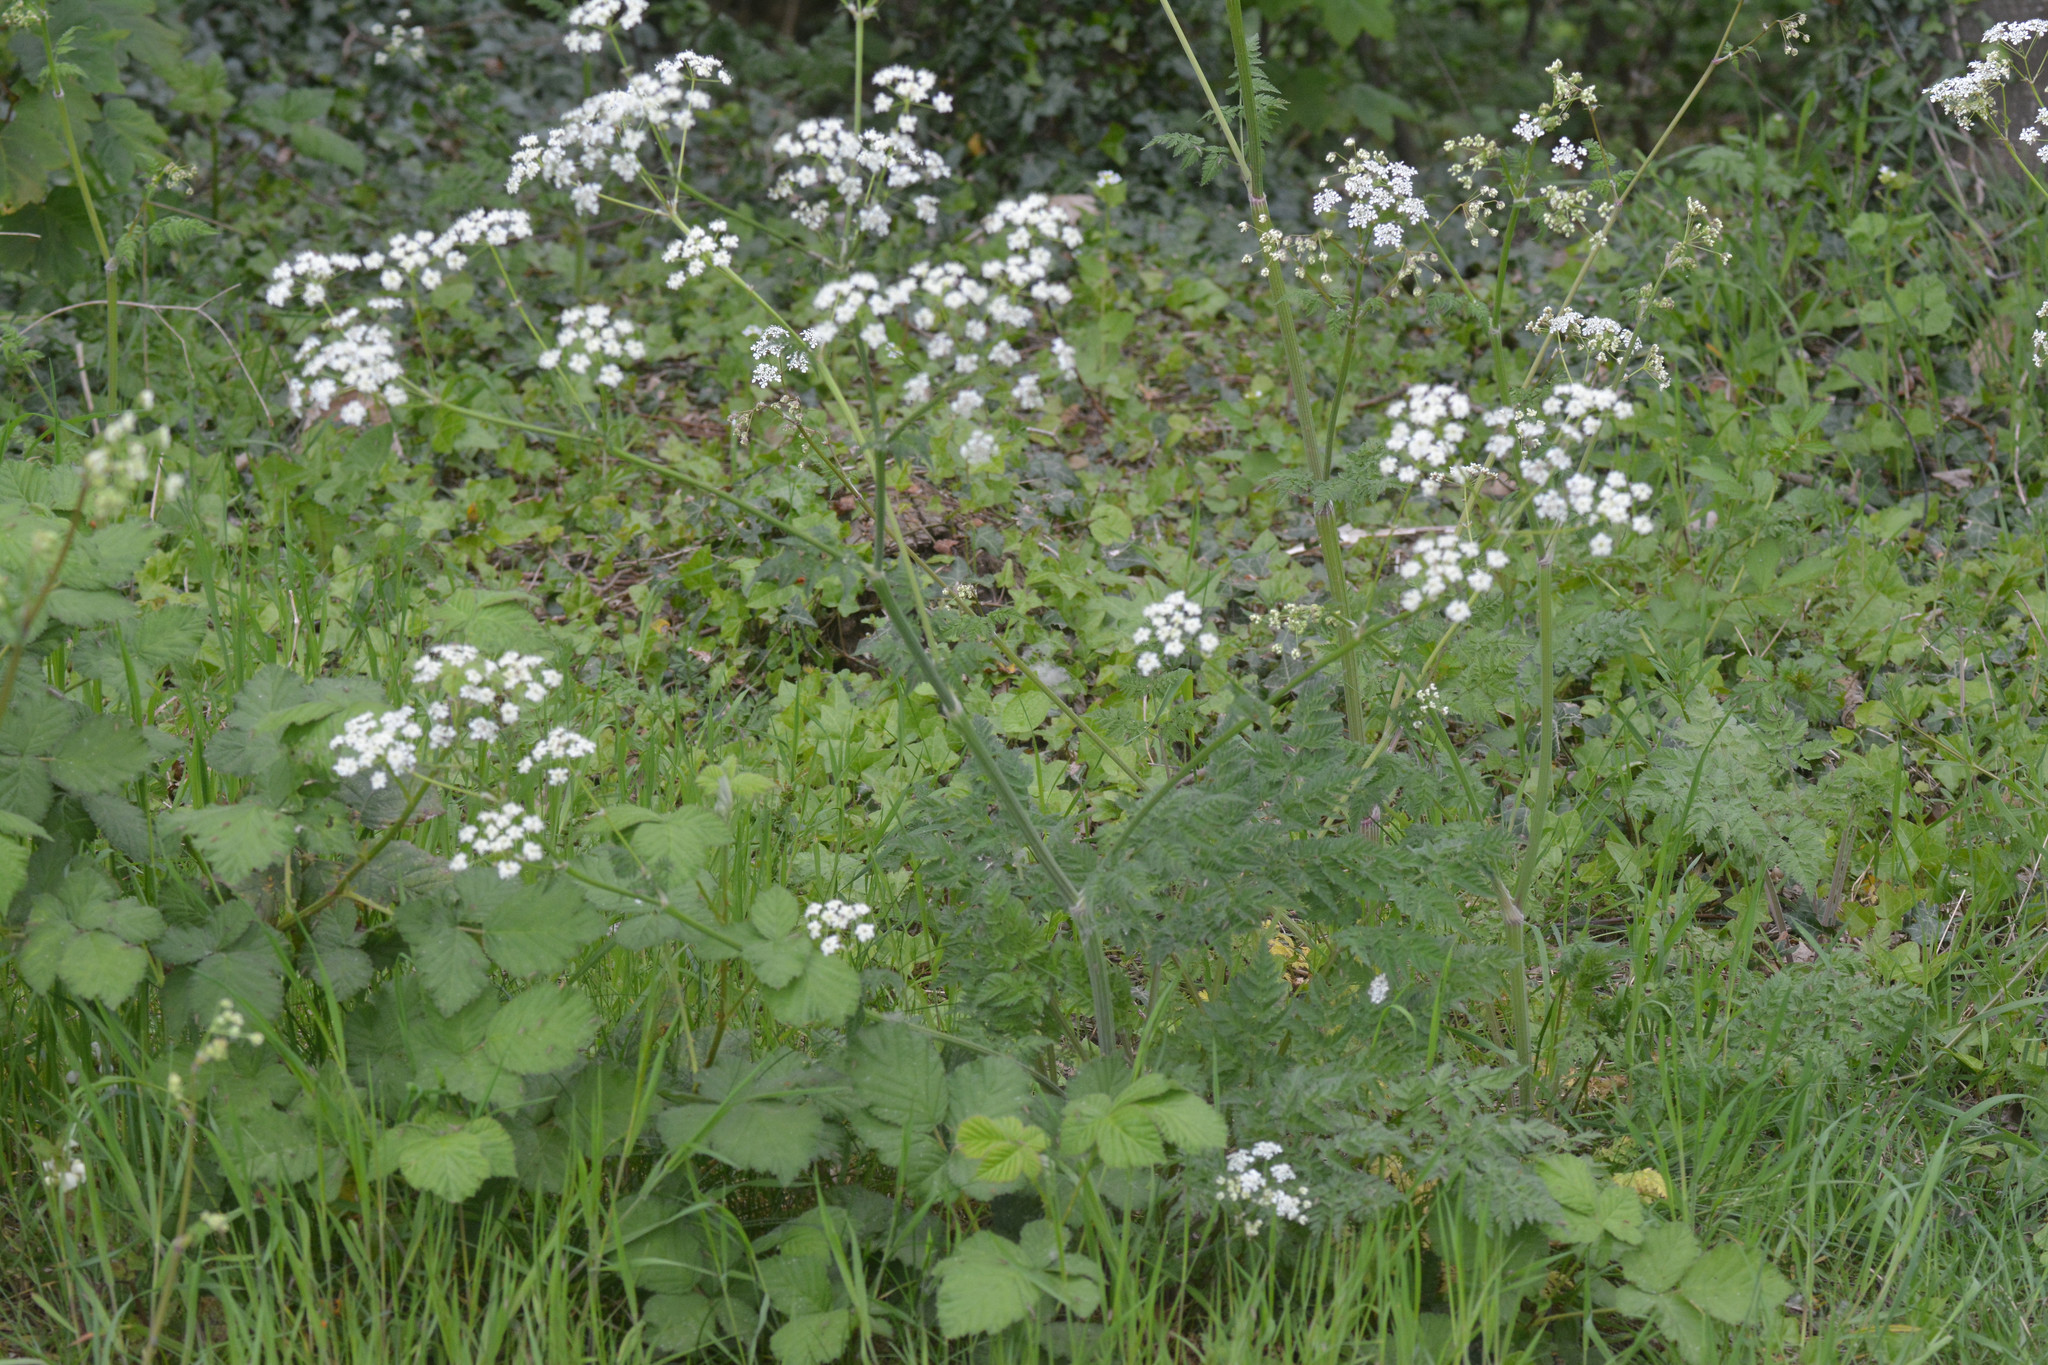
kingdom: Plantae
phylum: Tracheophyta
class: Magnoliopsida
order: Apiales
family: Apiaceae
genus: Anthriscus
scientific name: Anthriscus sylvestris
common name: Cow parsley
